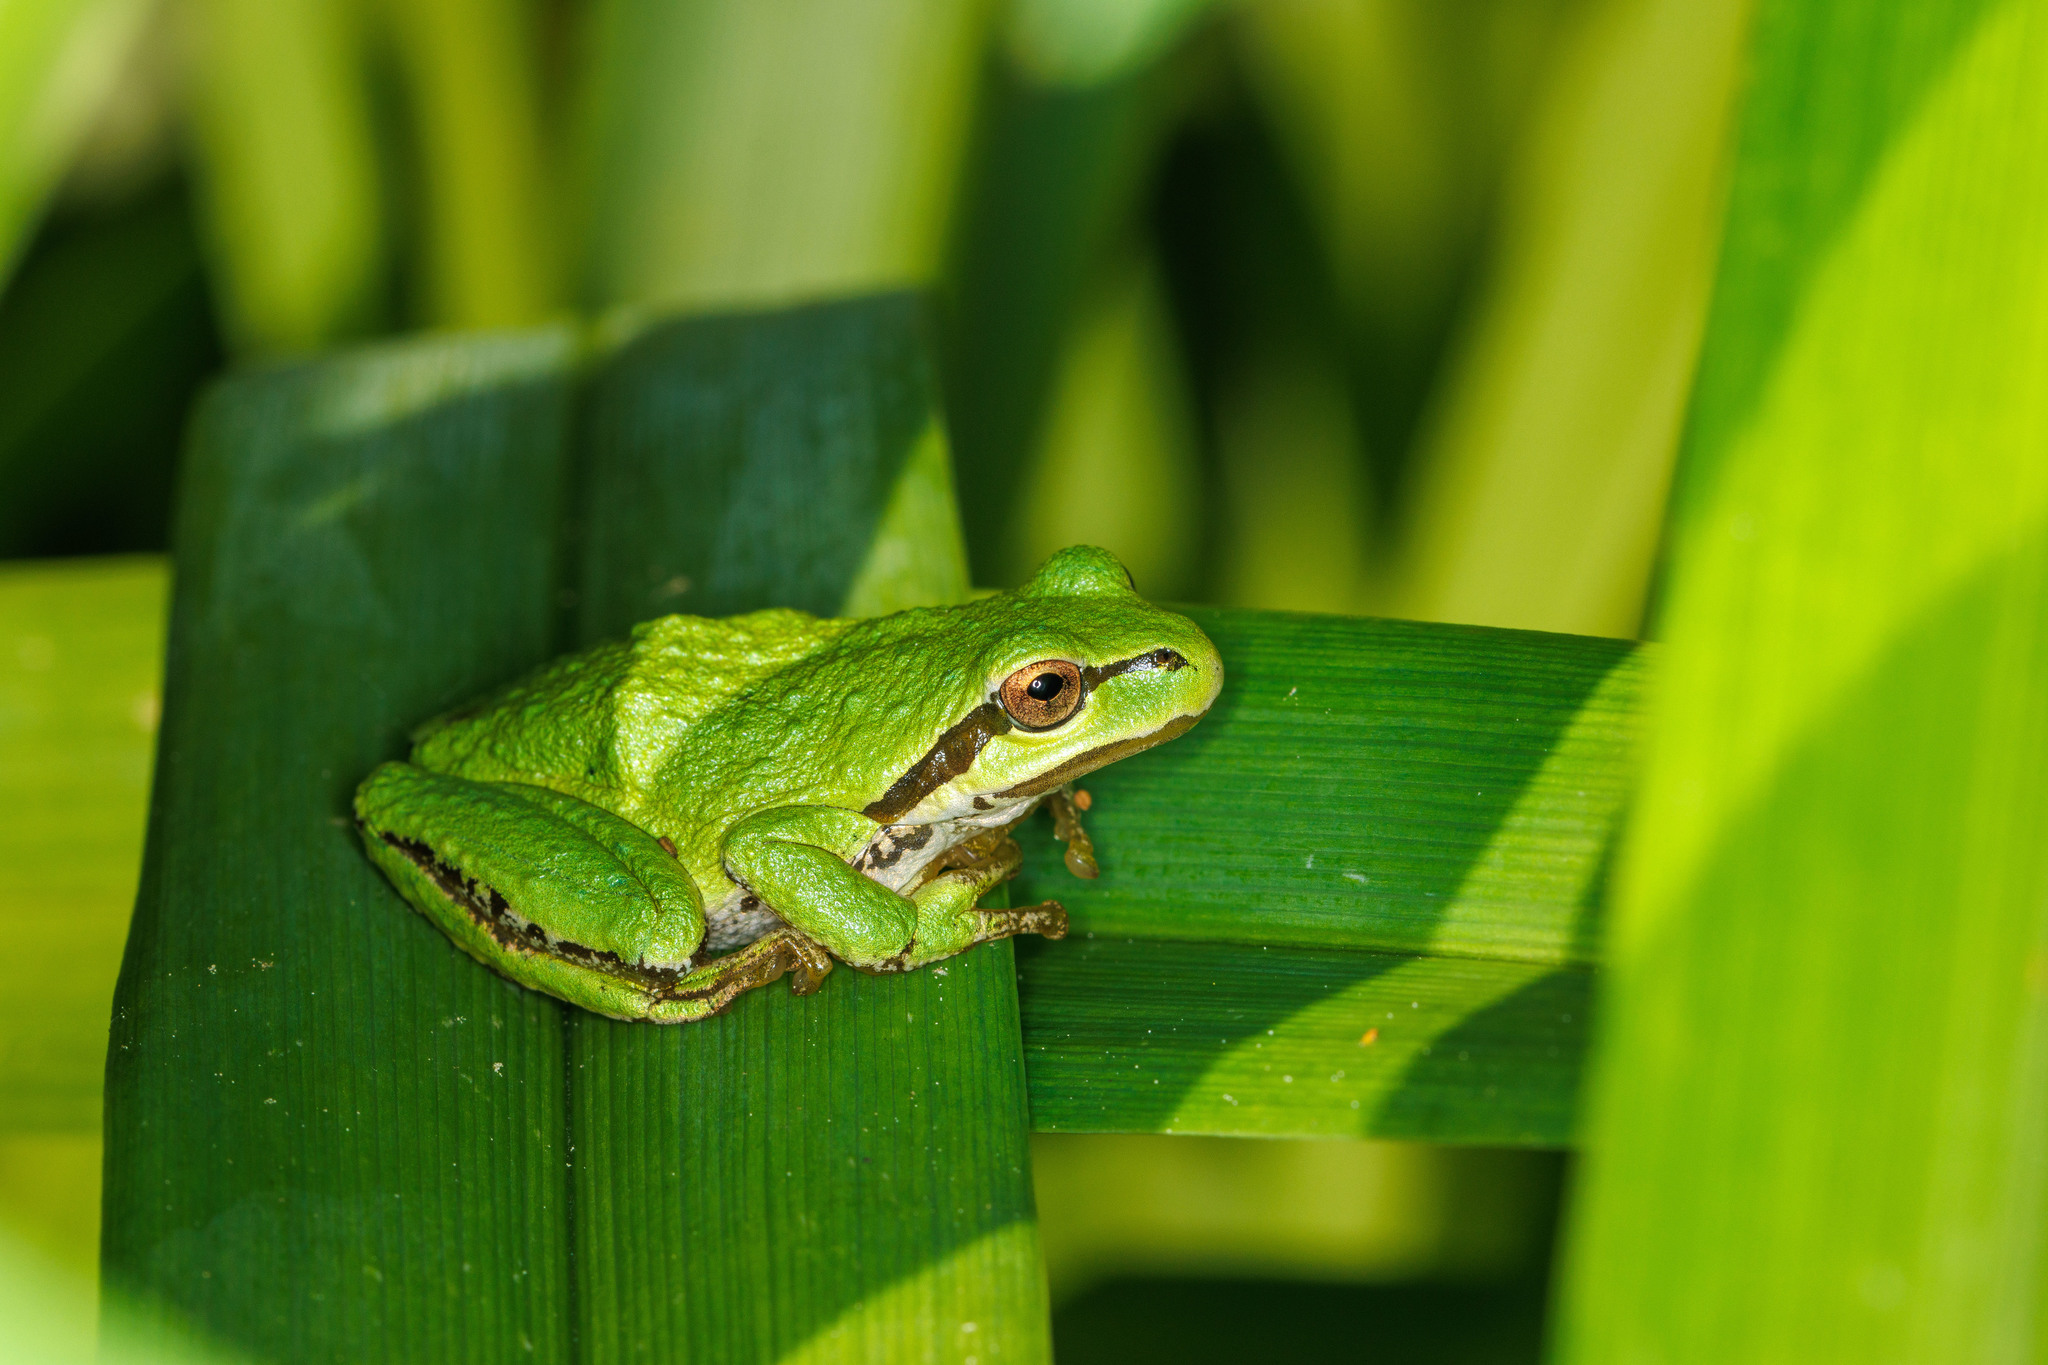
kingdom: Animalia
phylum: Chordata
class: Amphibia
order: Anura
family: Hylidae
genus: Pseudacris
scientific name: Pseudacris regilla
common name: Pacific chorus frog
